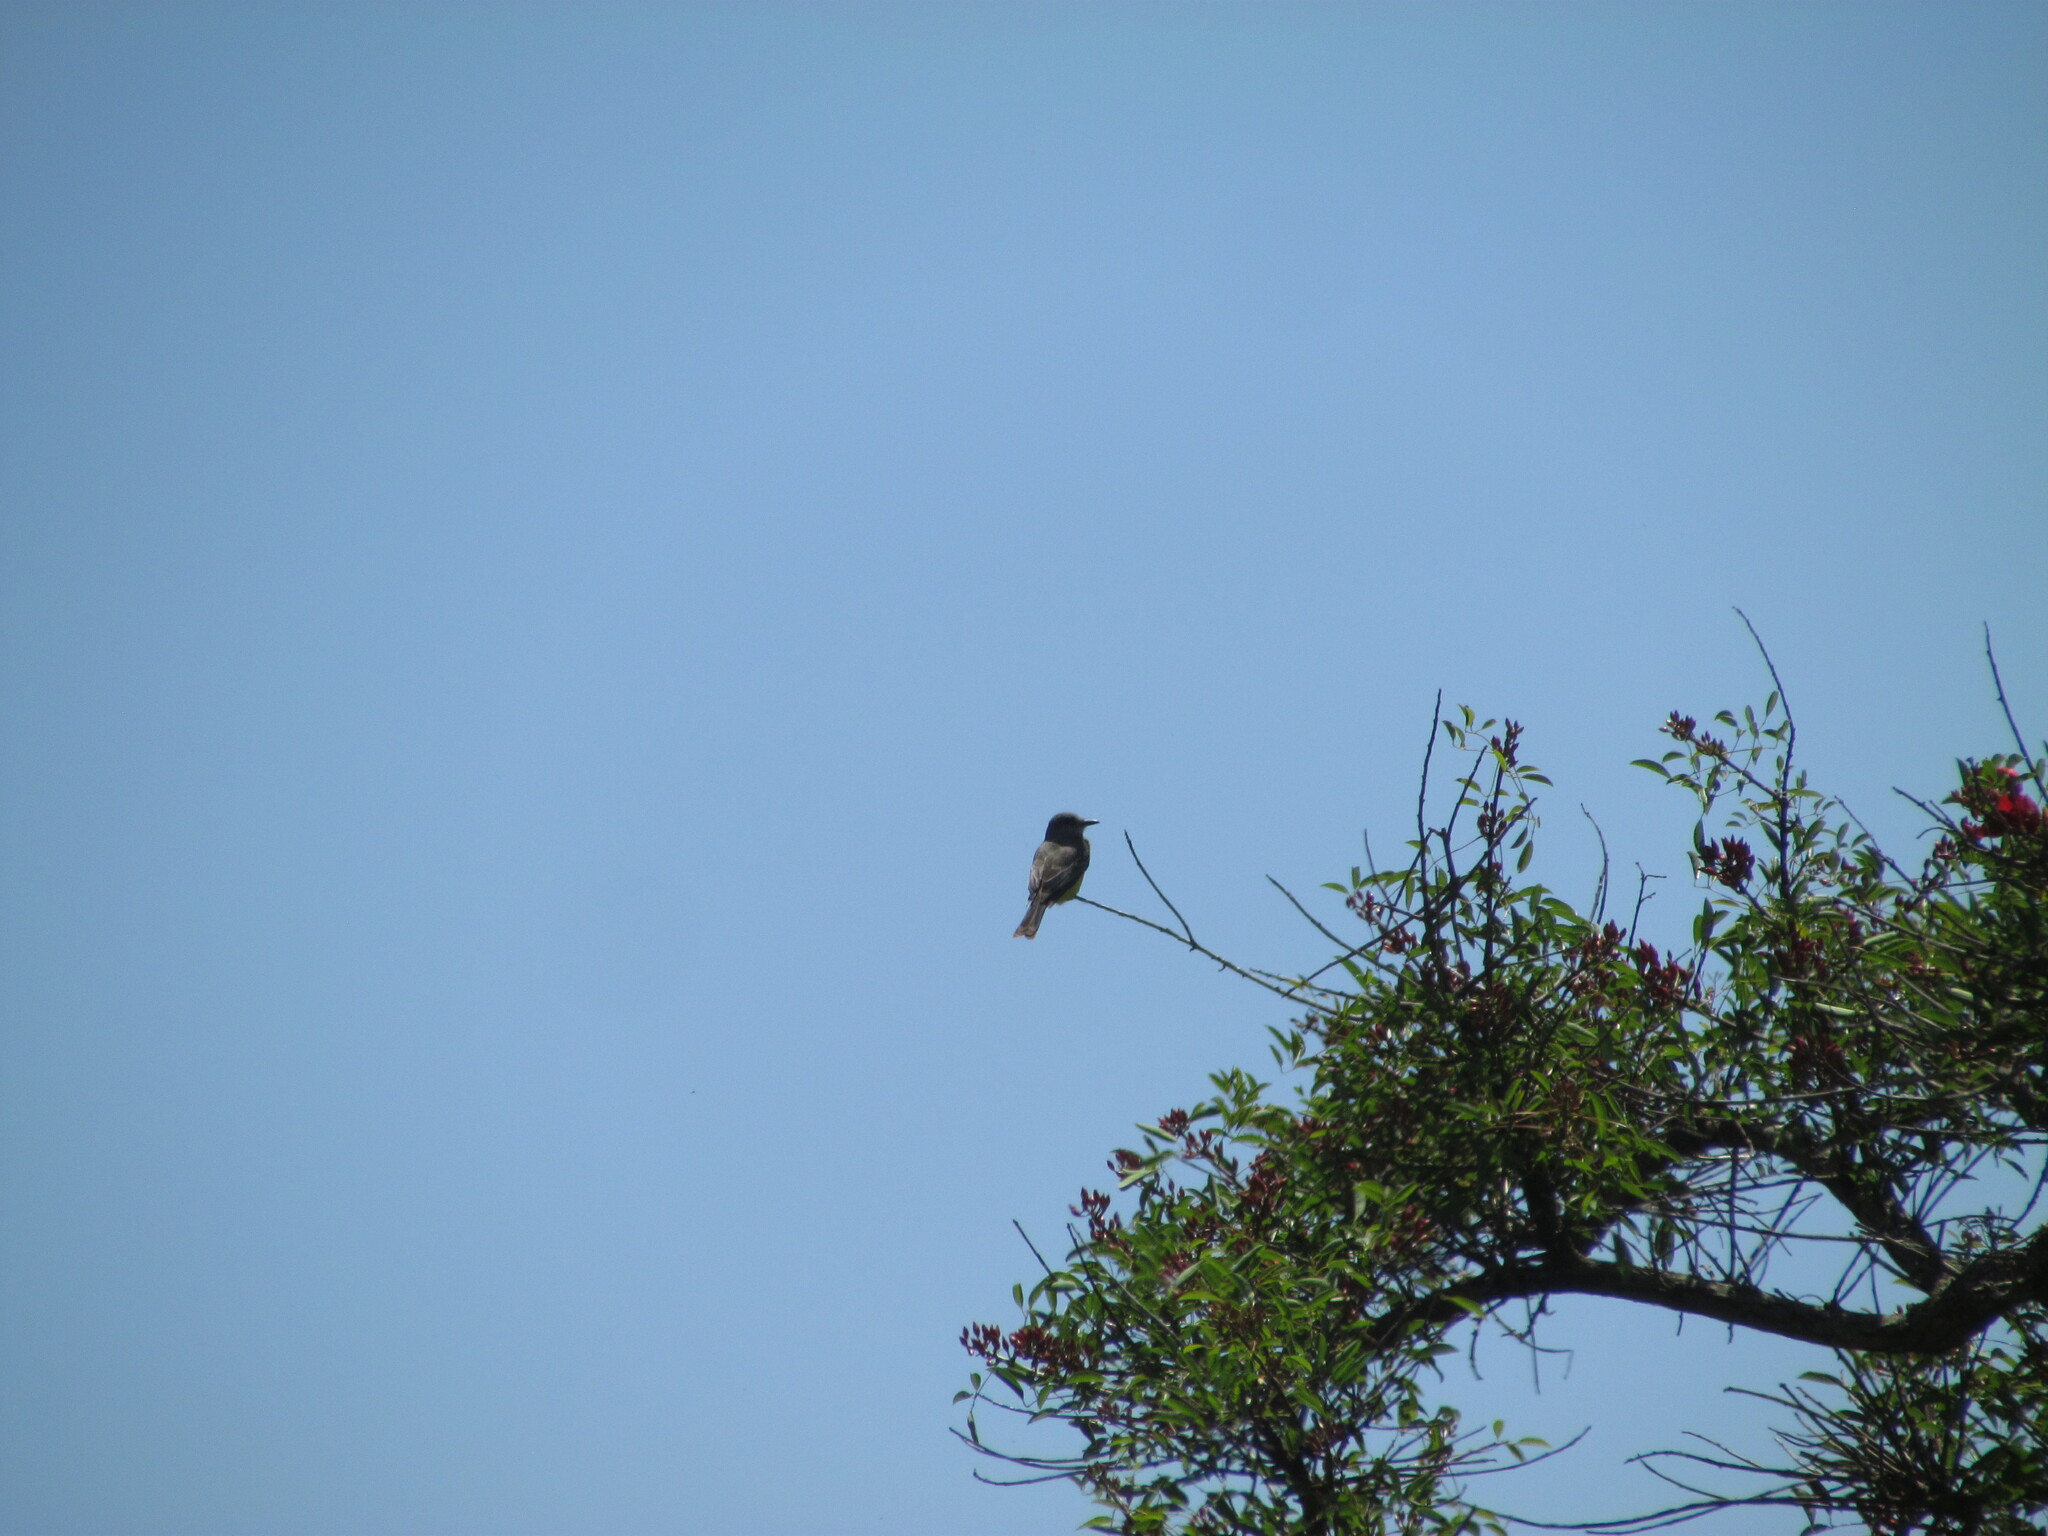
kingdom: Animalia
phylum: Chordata
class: Aves
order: Passeriformes
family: Tyrannidae
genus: Tyrannus
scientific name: Tyrannus melancholicus
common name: Tropical kingbird
